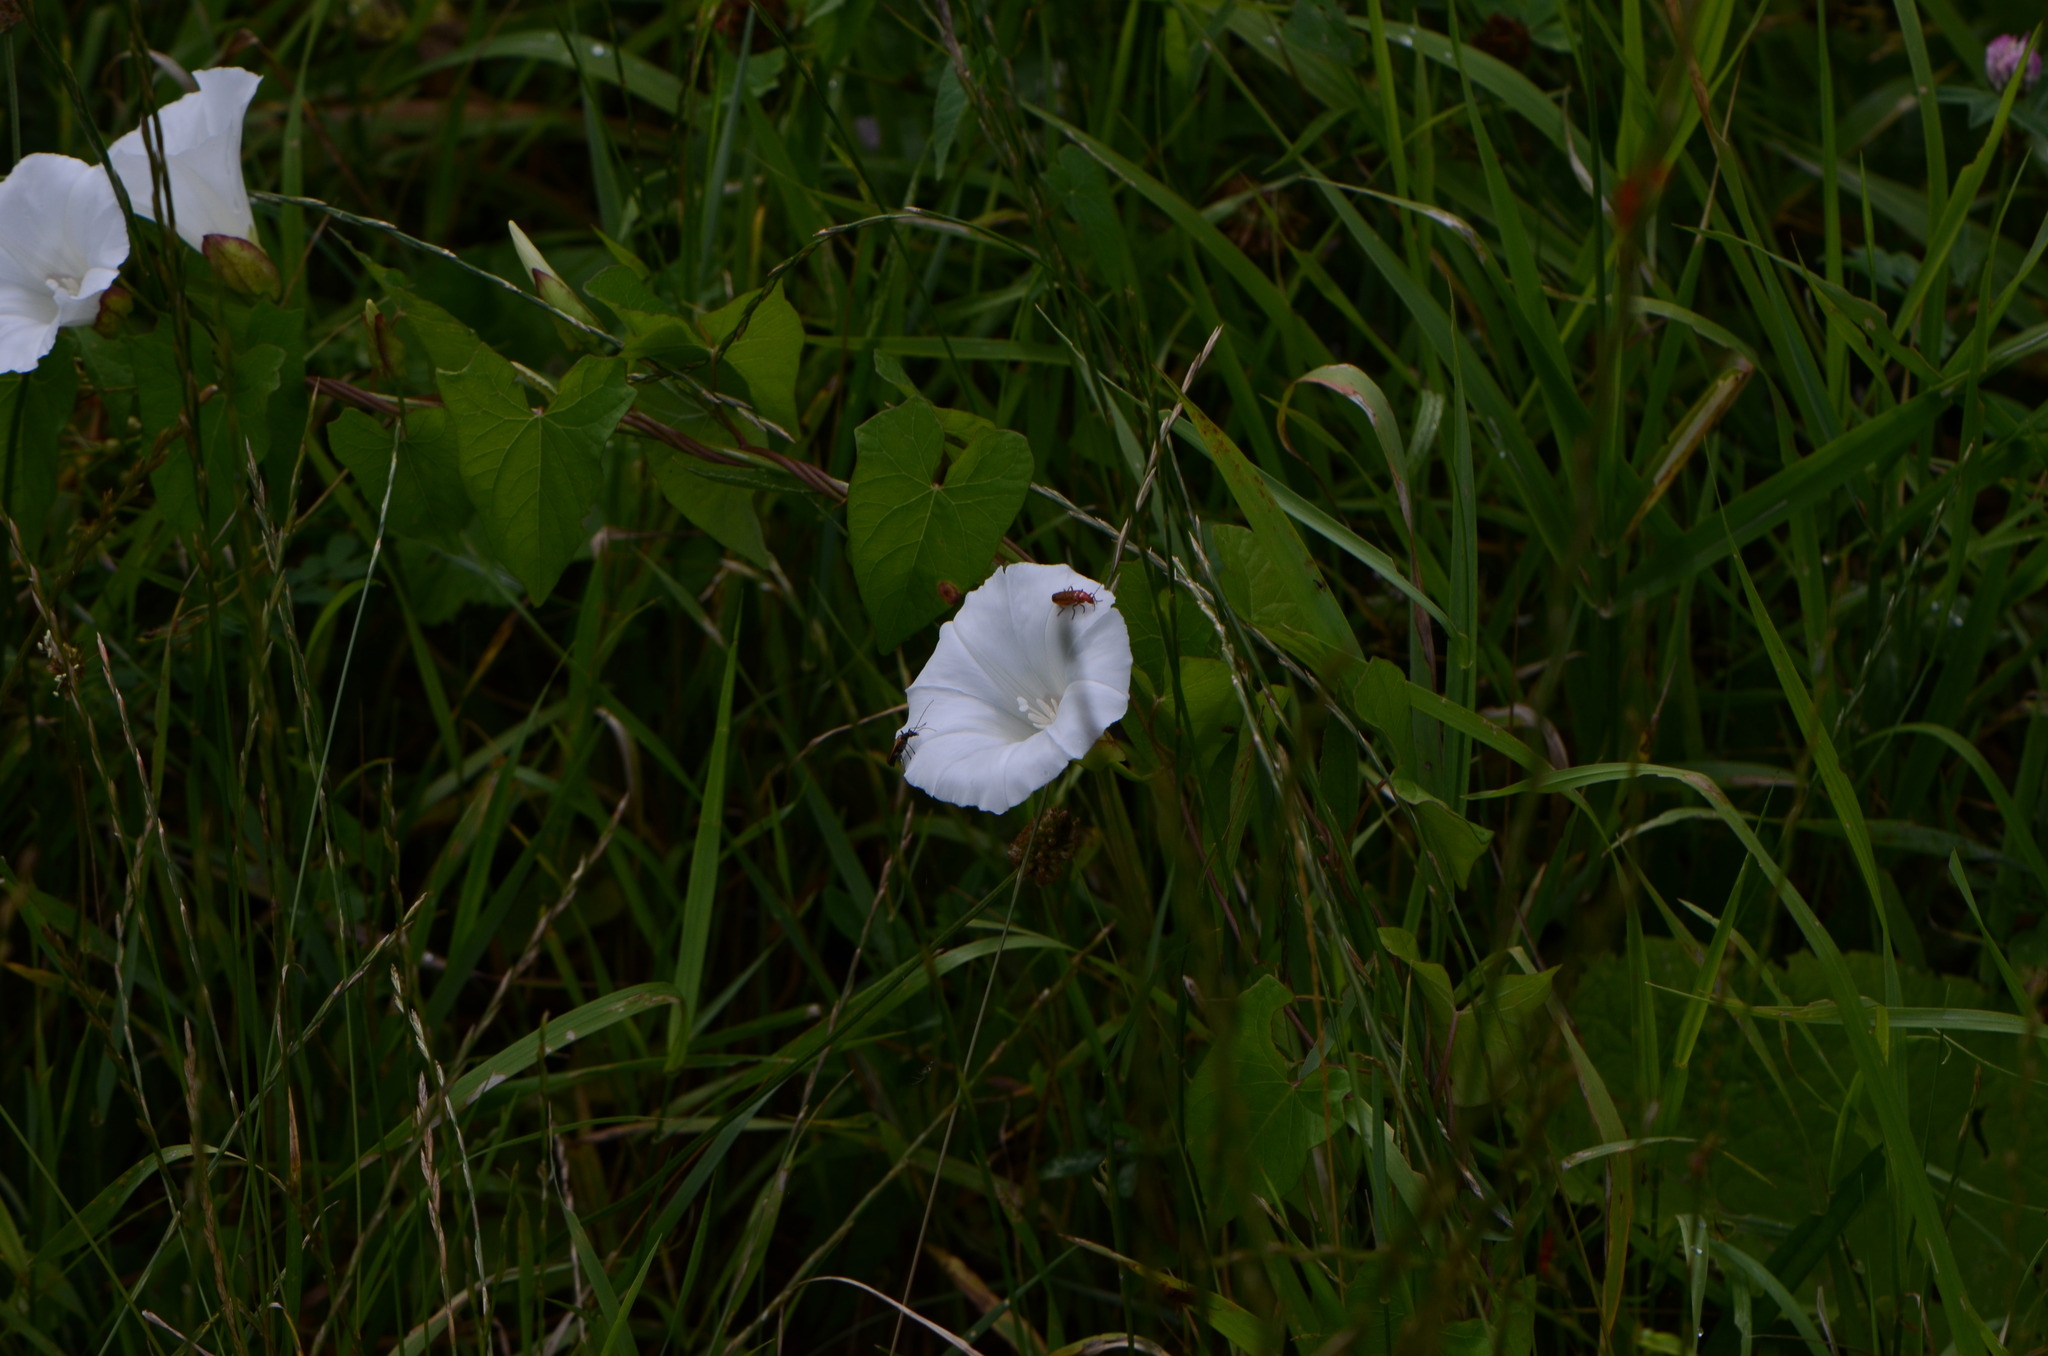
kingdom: Plantae
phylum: Tracheophyta
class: Magnoliopsida
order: Solanales
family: Convolvulaceae
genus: Calystegia
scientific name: Calystegia sepium
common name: Hedge bindweed
